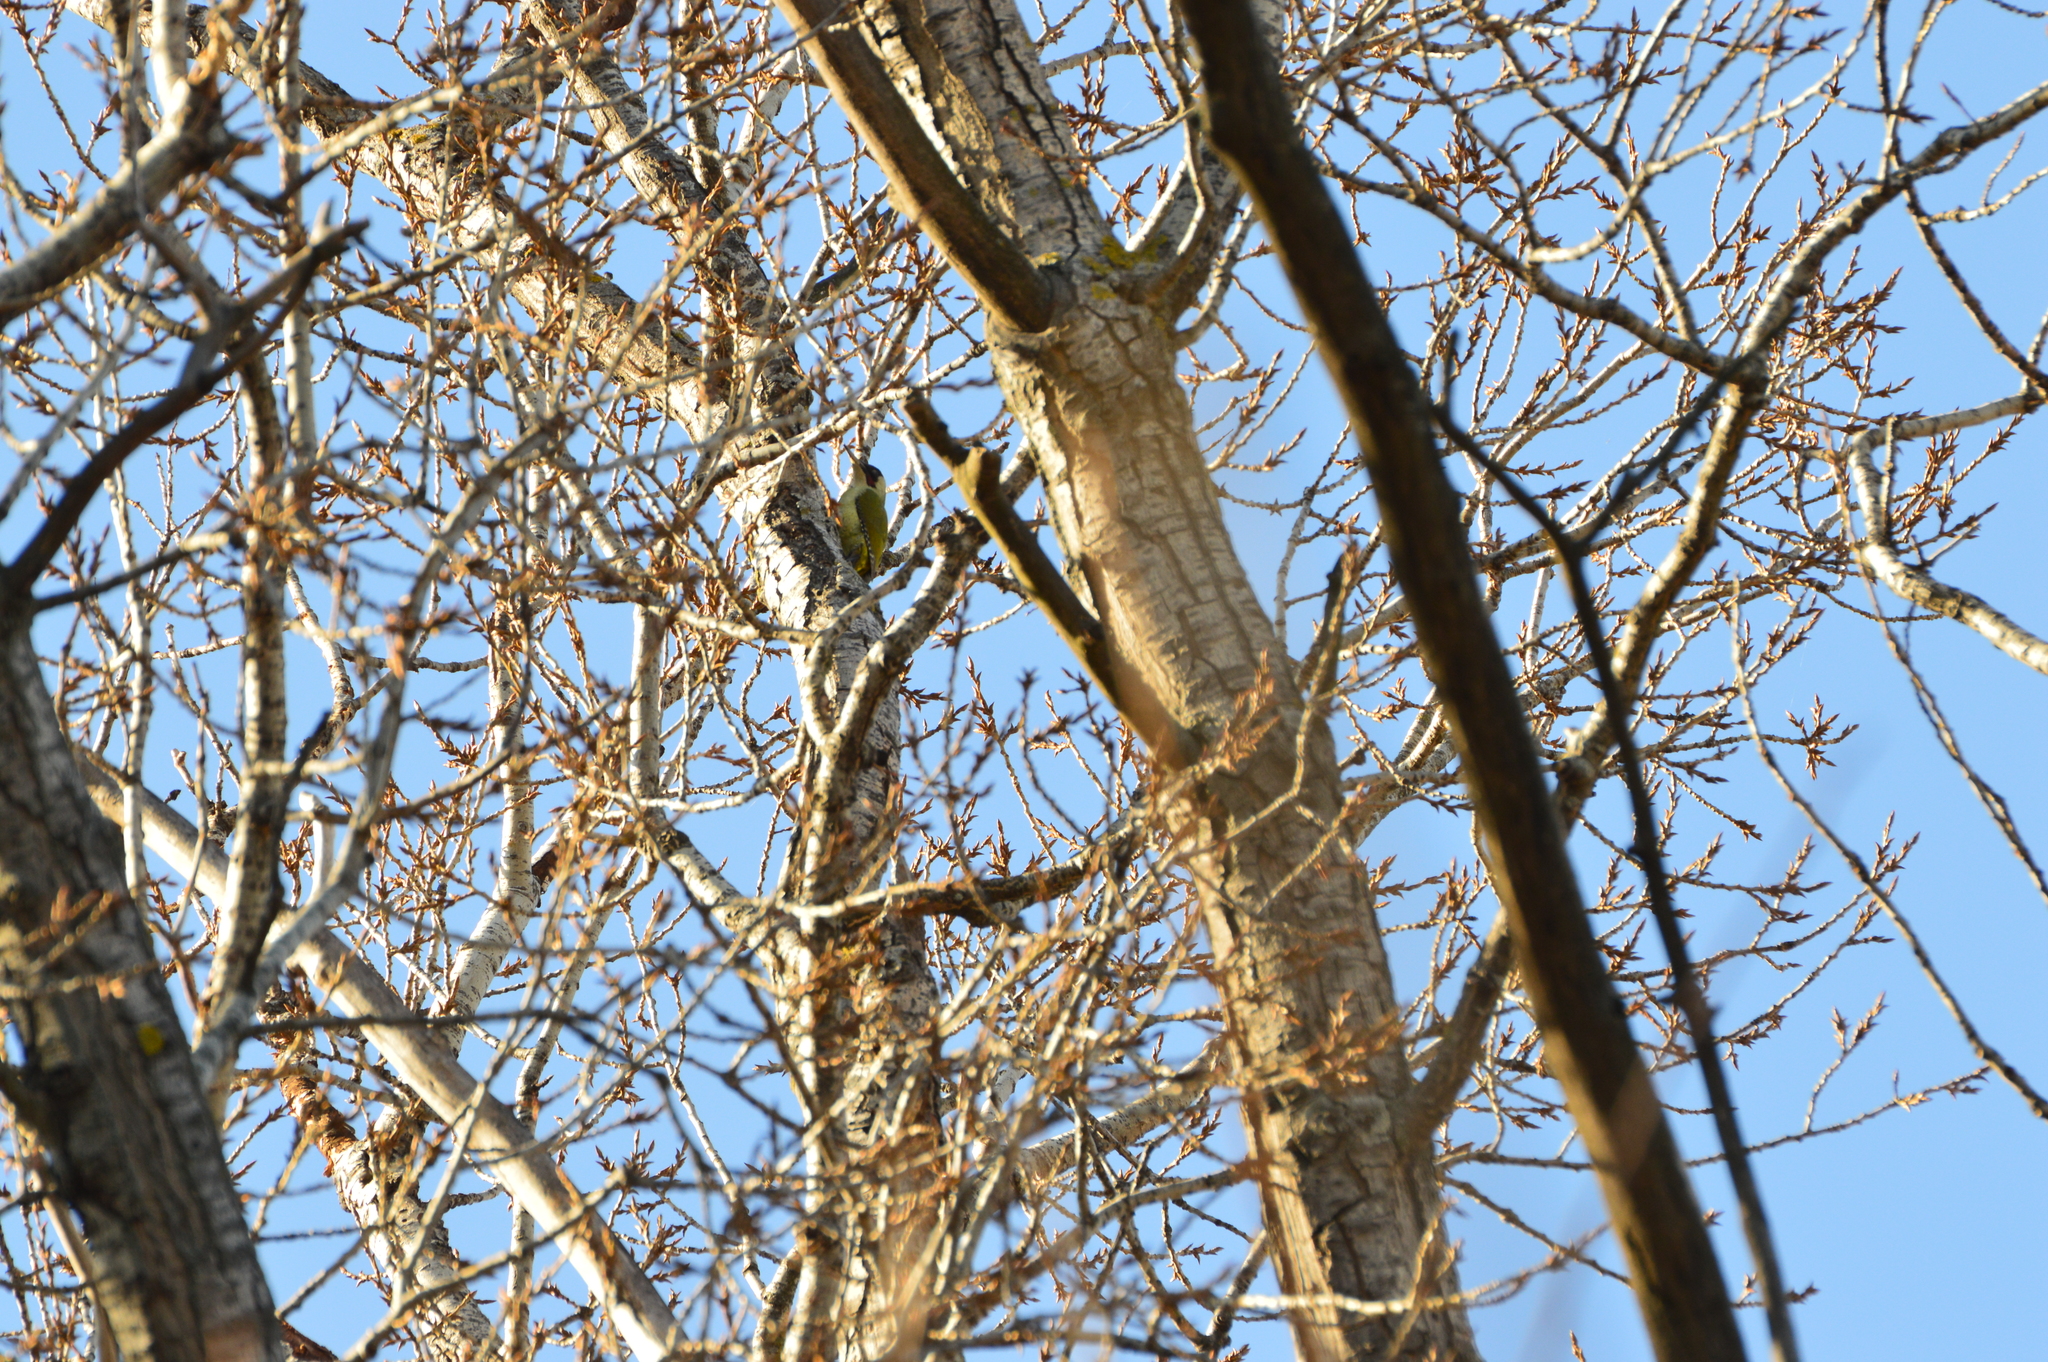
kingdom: Animalia
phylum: Chordata
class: Aves
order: Piciformes
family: Picidae
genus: Picus
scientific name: Picus viridis
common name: European green woodpecker
